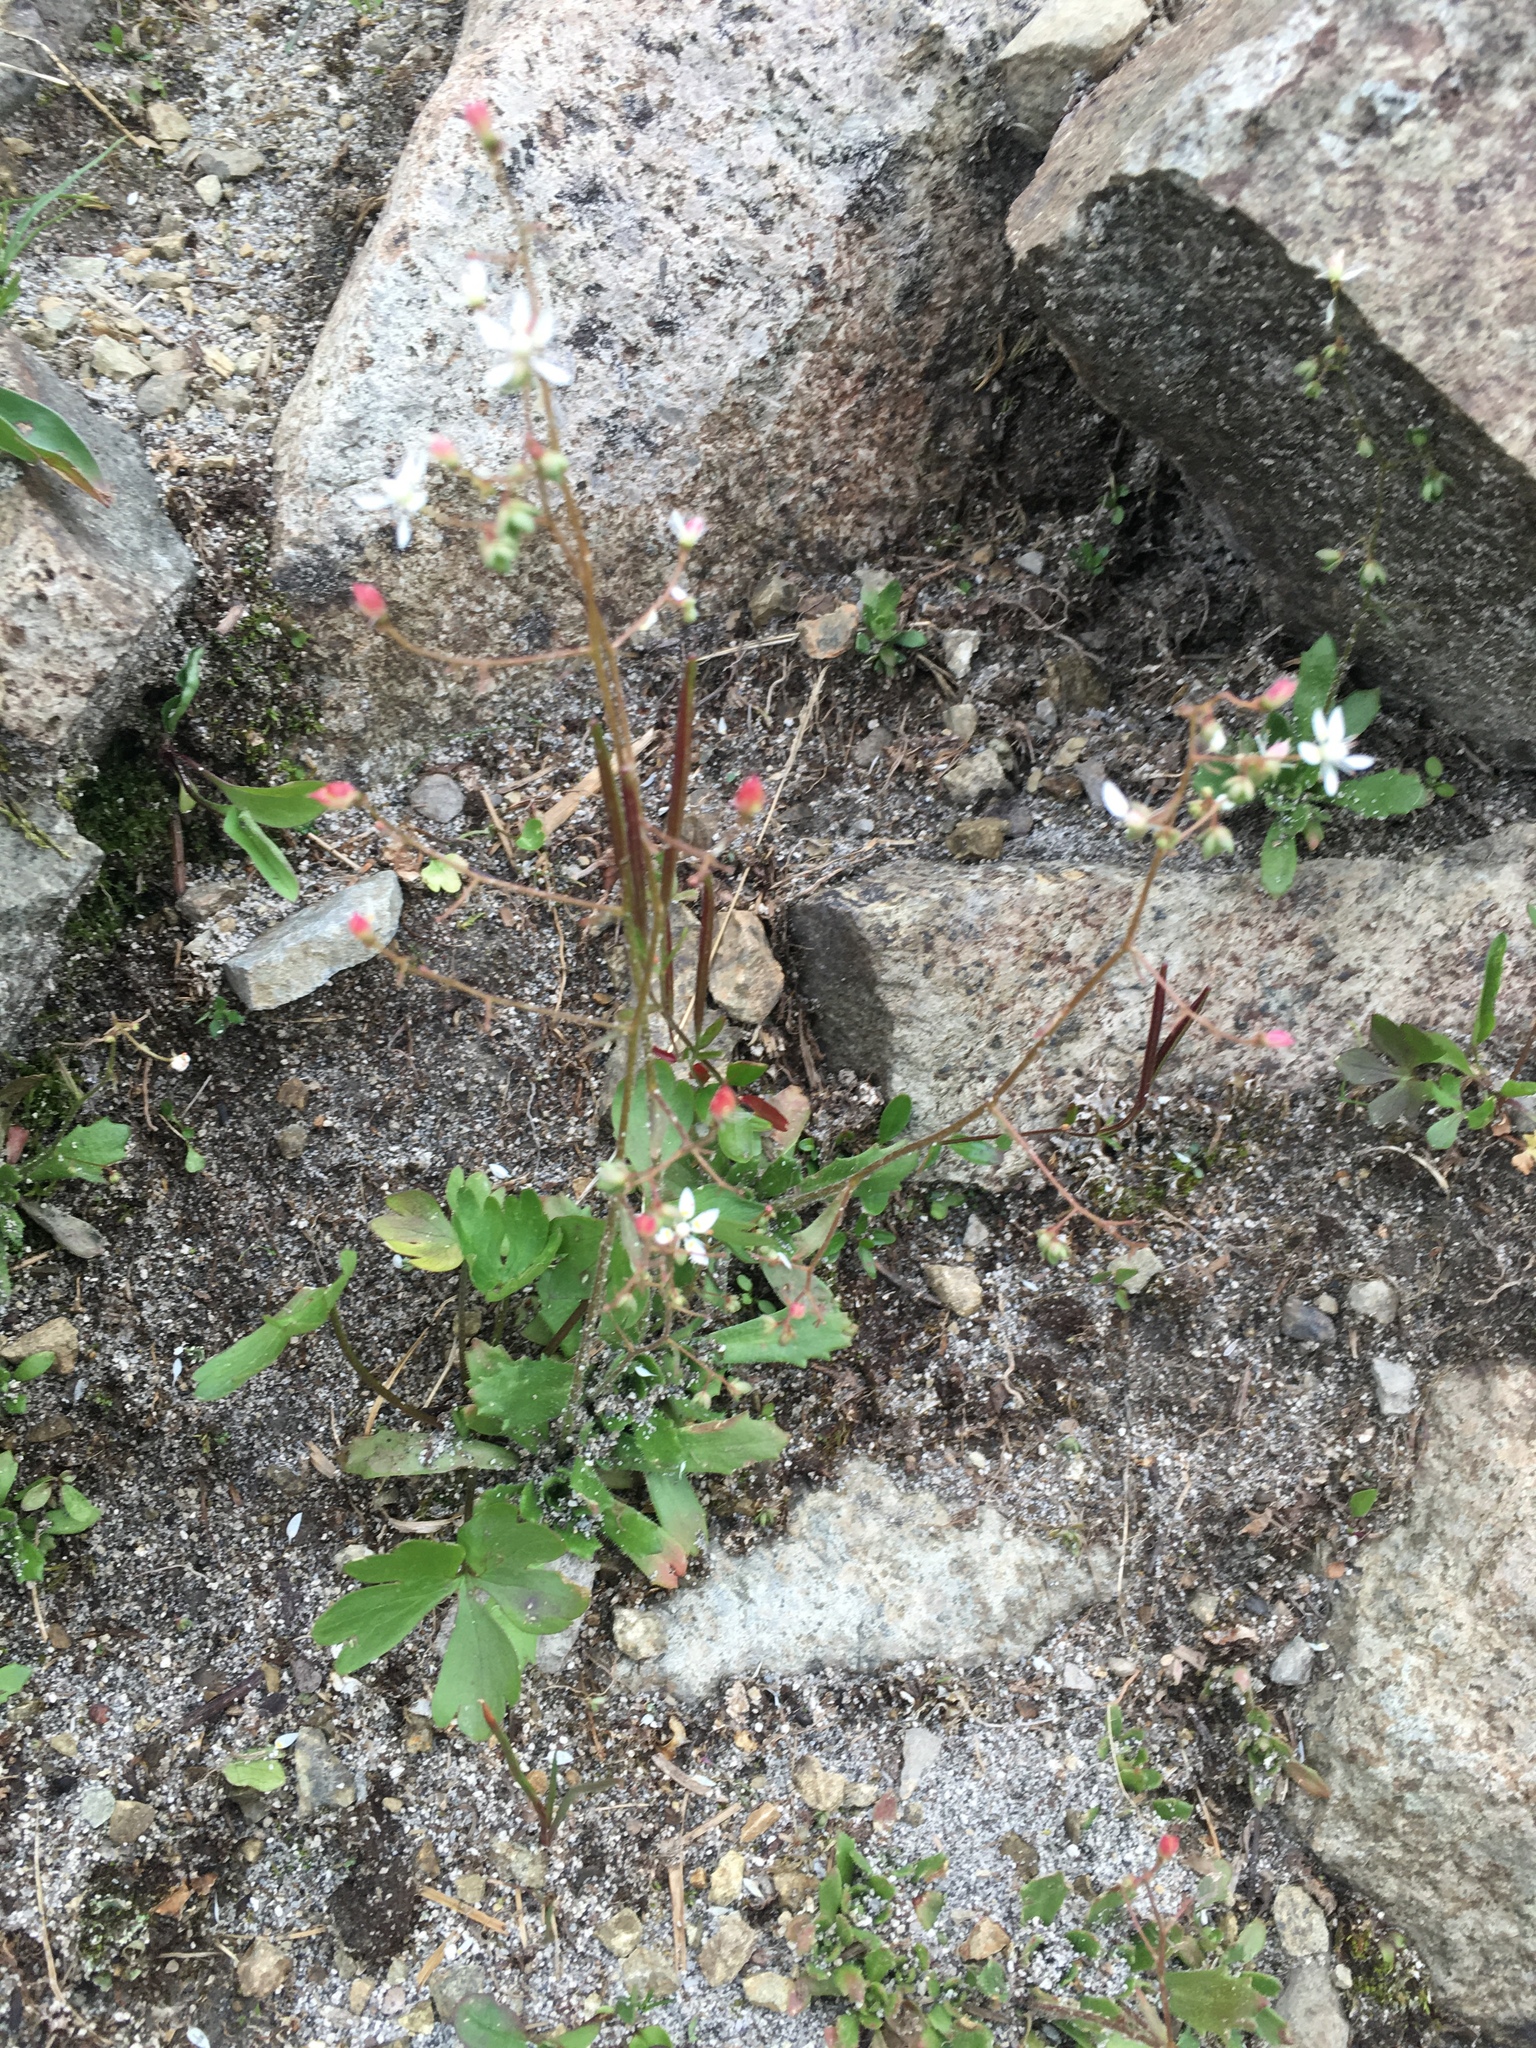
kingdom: Plantae
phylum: Tracheophyta
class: Magnoliopsida
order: Saxifragales
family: Saxifragaceae
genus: Micranthes
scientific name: Micranthes ferruginea
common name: Rusty saxifrage
